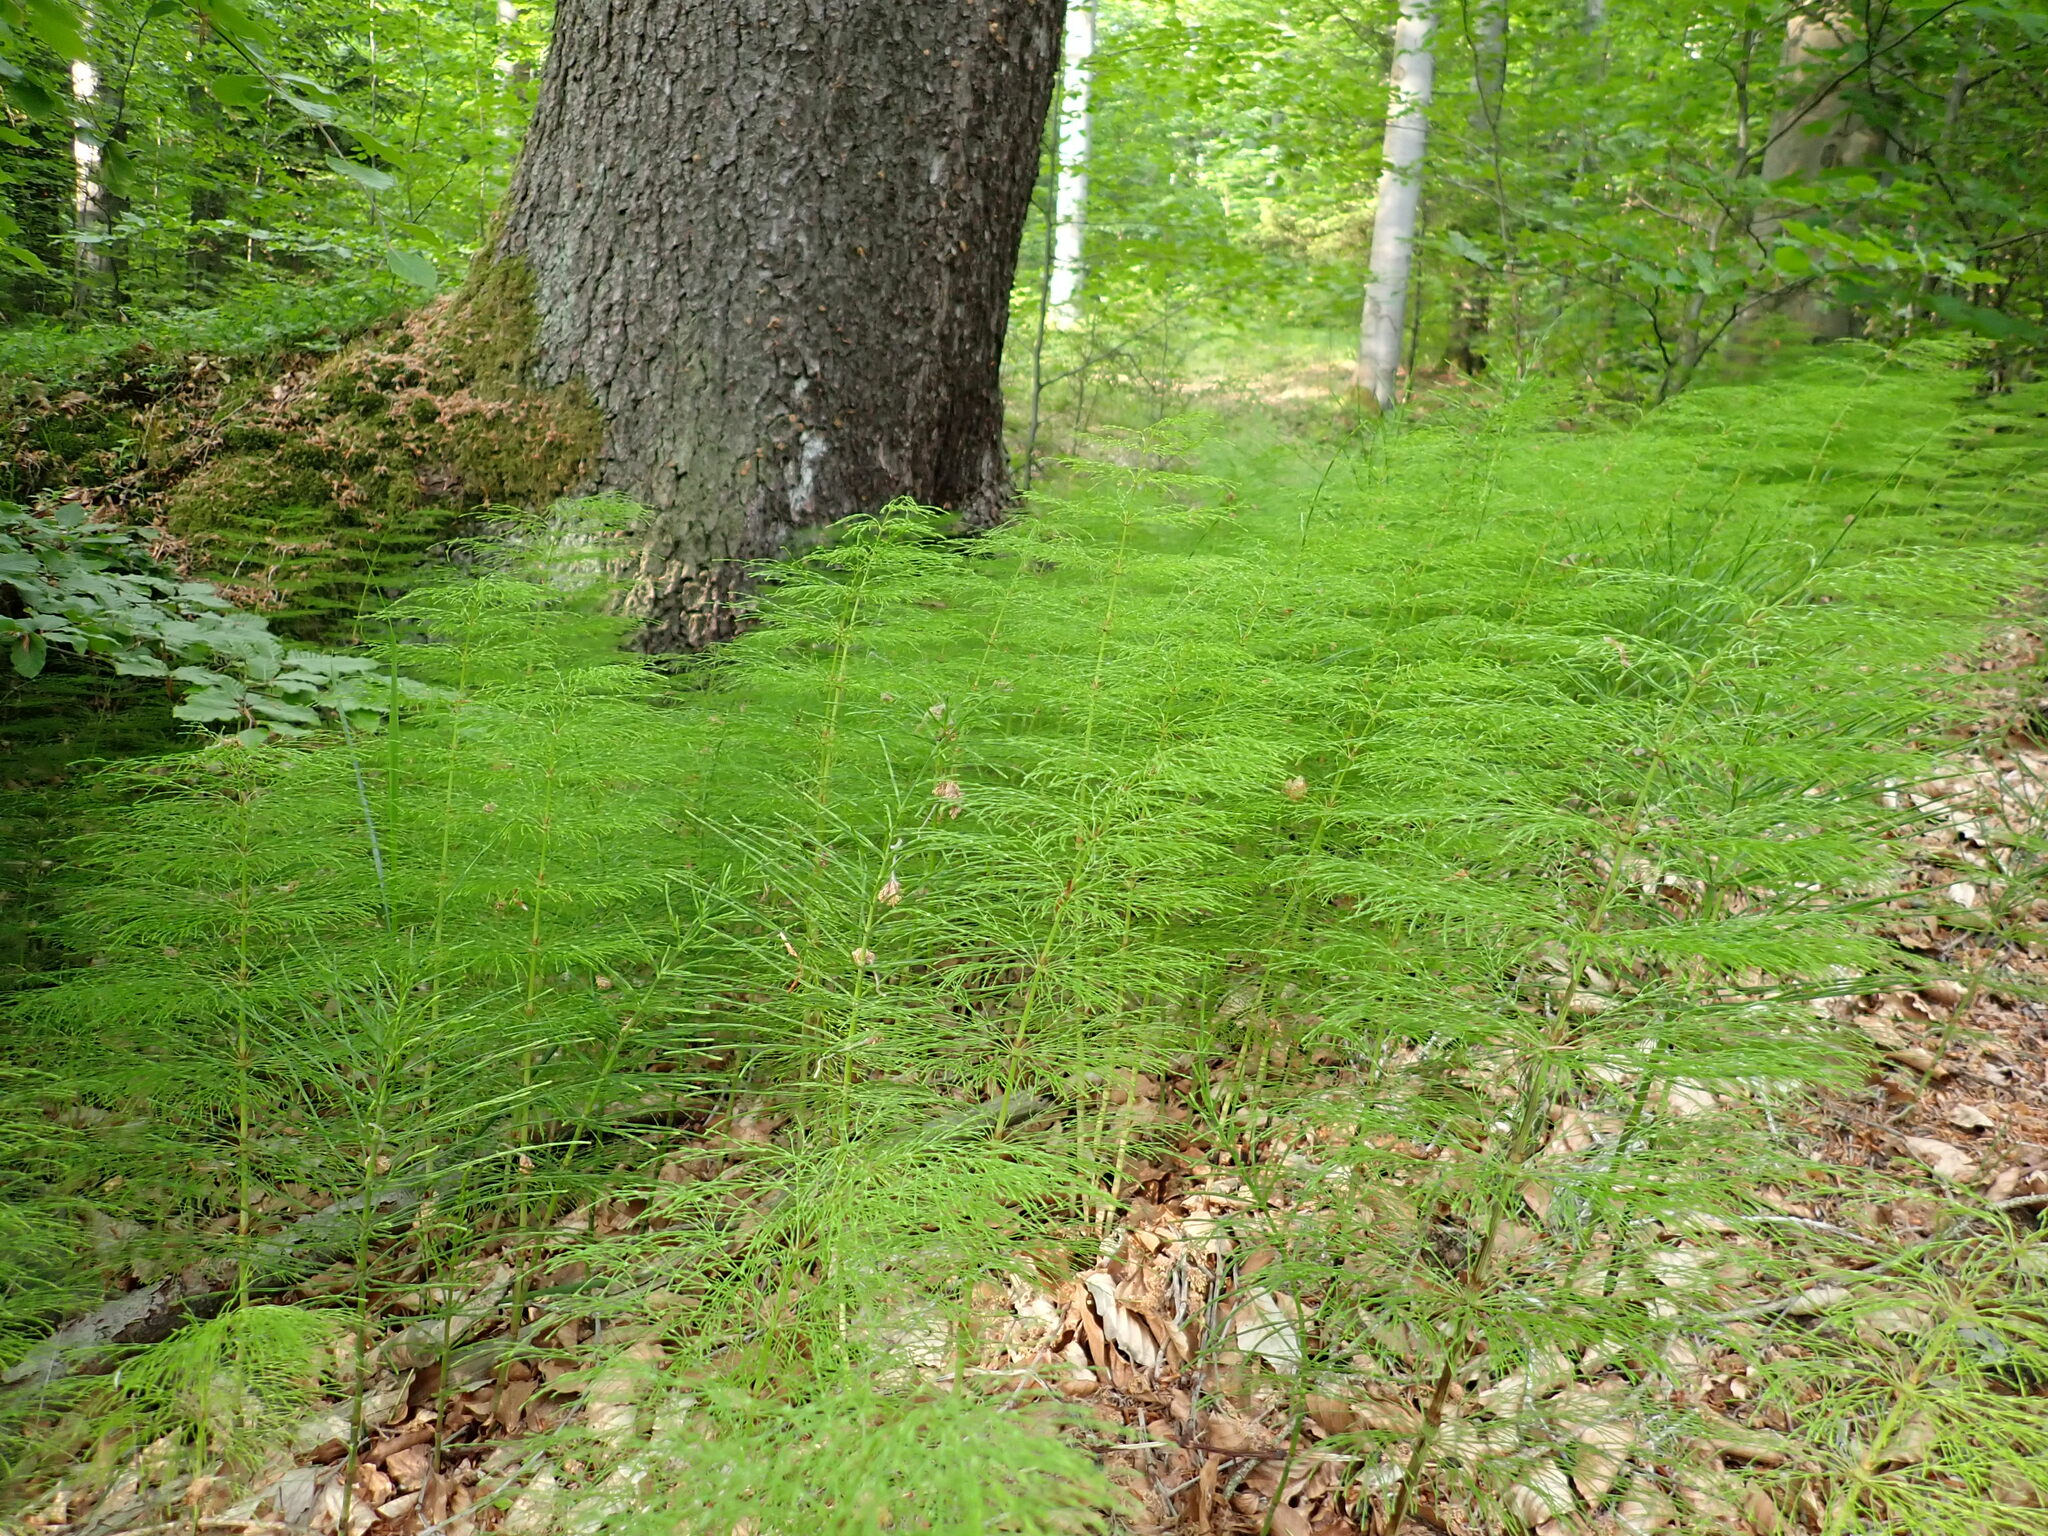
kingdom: Plantae
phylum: Tracheophyta
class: Polypodiopsida
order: Equisetales
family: Equisetaceae
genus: Equisetum
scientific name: Equisetum sylvaticum
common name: Wood horsetail
